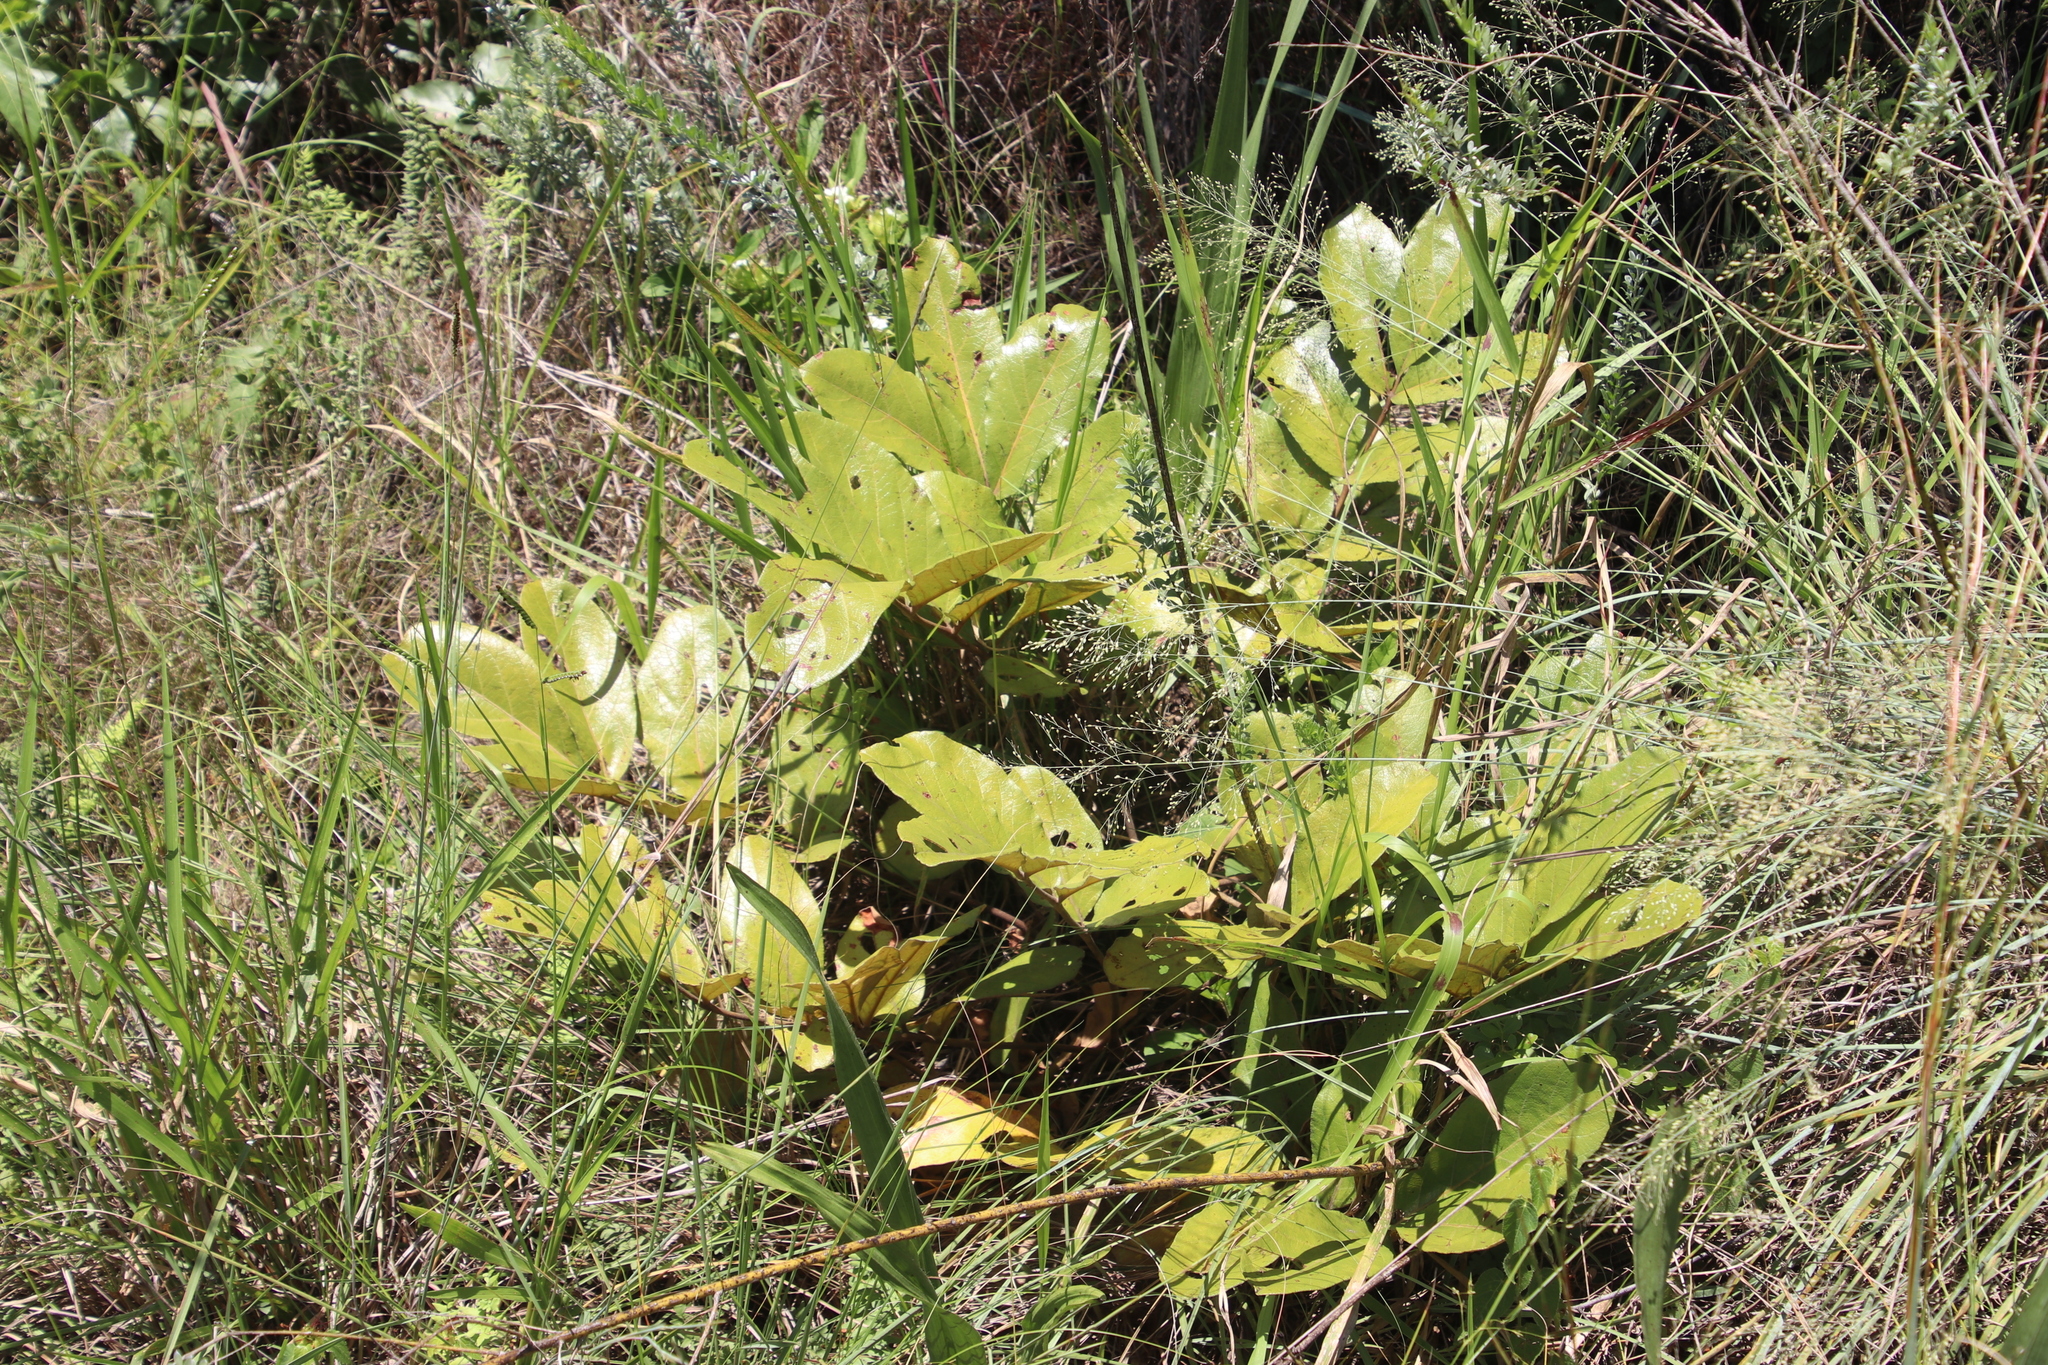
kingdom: Plantae
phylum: Tracheophyta
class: Magnoliopsida
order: Sapindales
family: Anacardiaceae
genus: Lannea
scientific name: Lannea edulis
